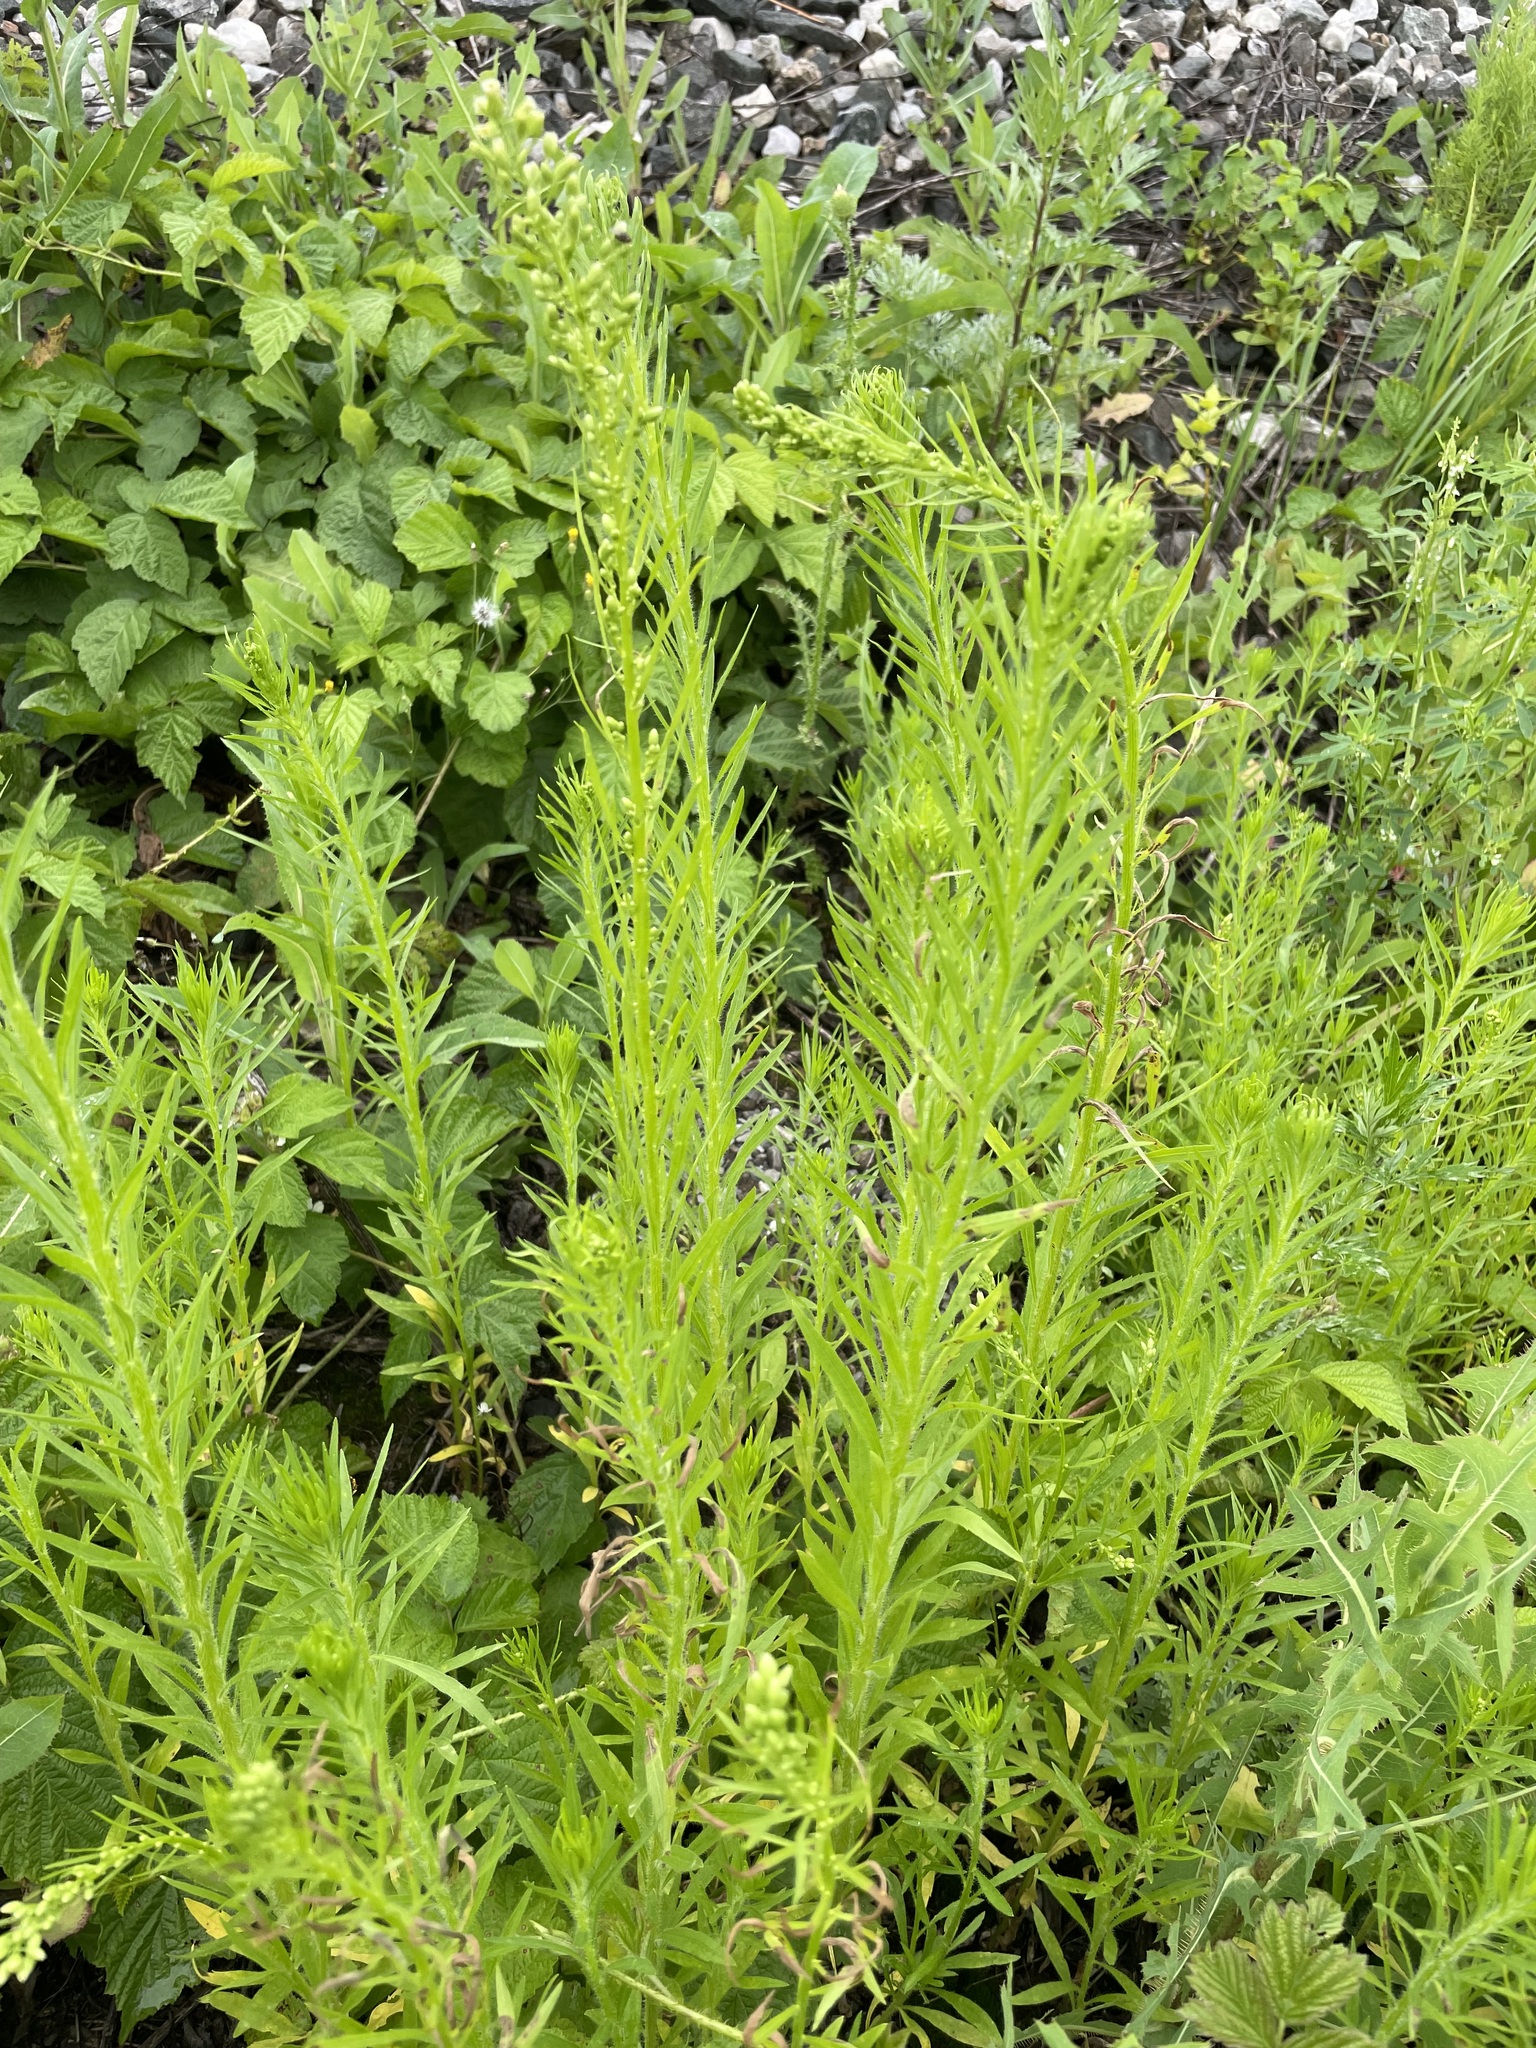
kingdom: Plantae
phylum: Tracheophyta
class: Magnoliopsida
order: Asterales
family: Asteraceae
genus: Erigeron
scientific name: Erigeron canadensis
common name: Canadian fleabane
